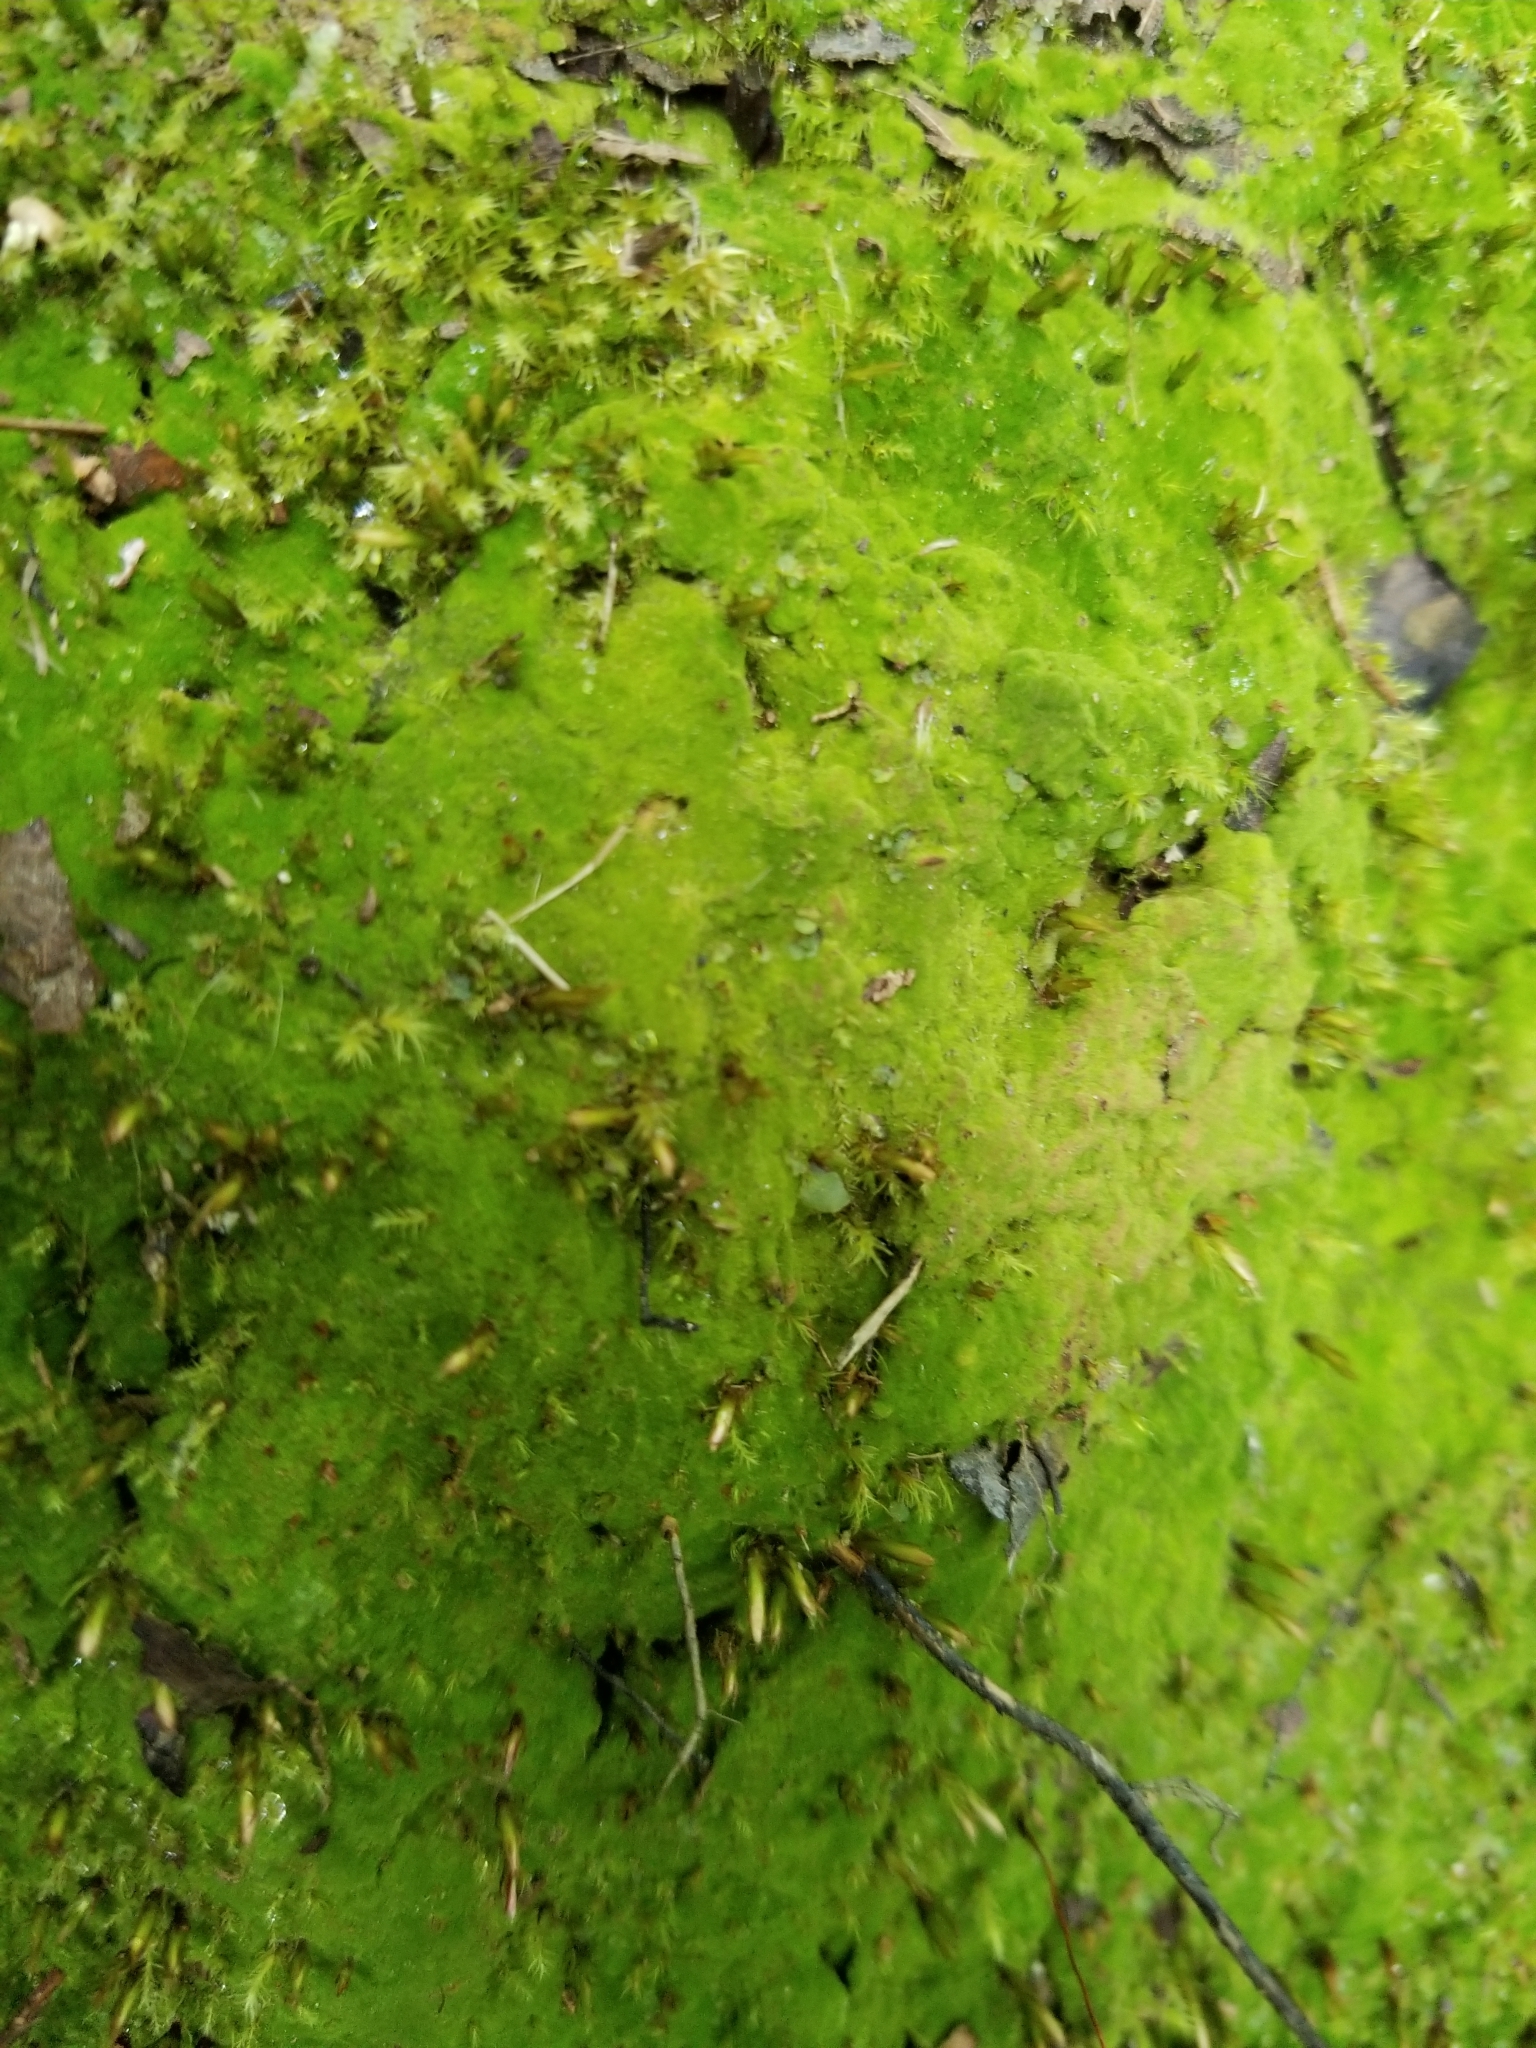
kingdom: Plantae
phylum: Bryophyta
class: Polytrichopsida
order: Polytrichales
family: Polytrichaceae
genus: Pogonatum
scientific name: Pogonatum pensilvanicum
